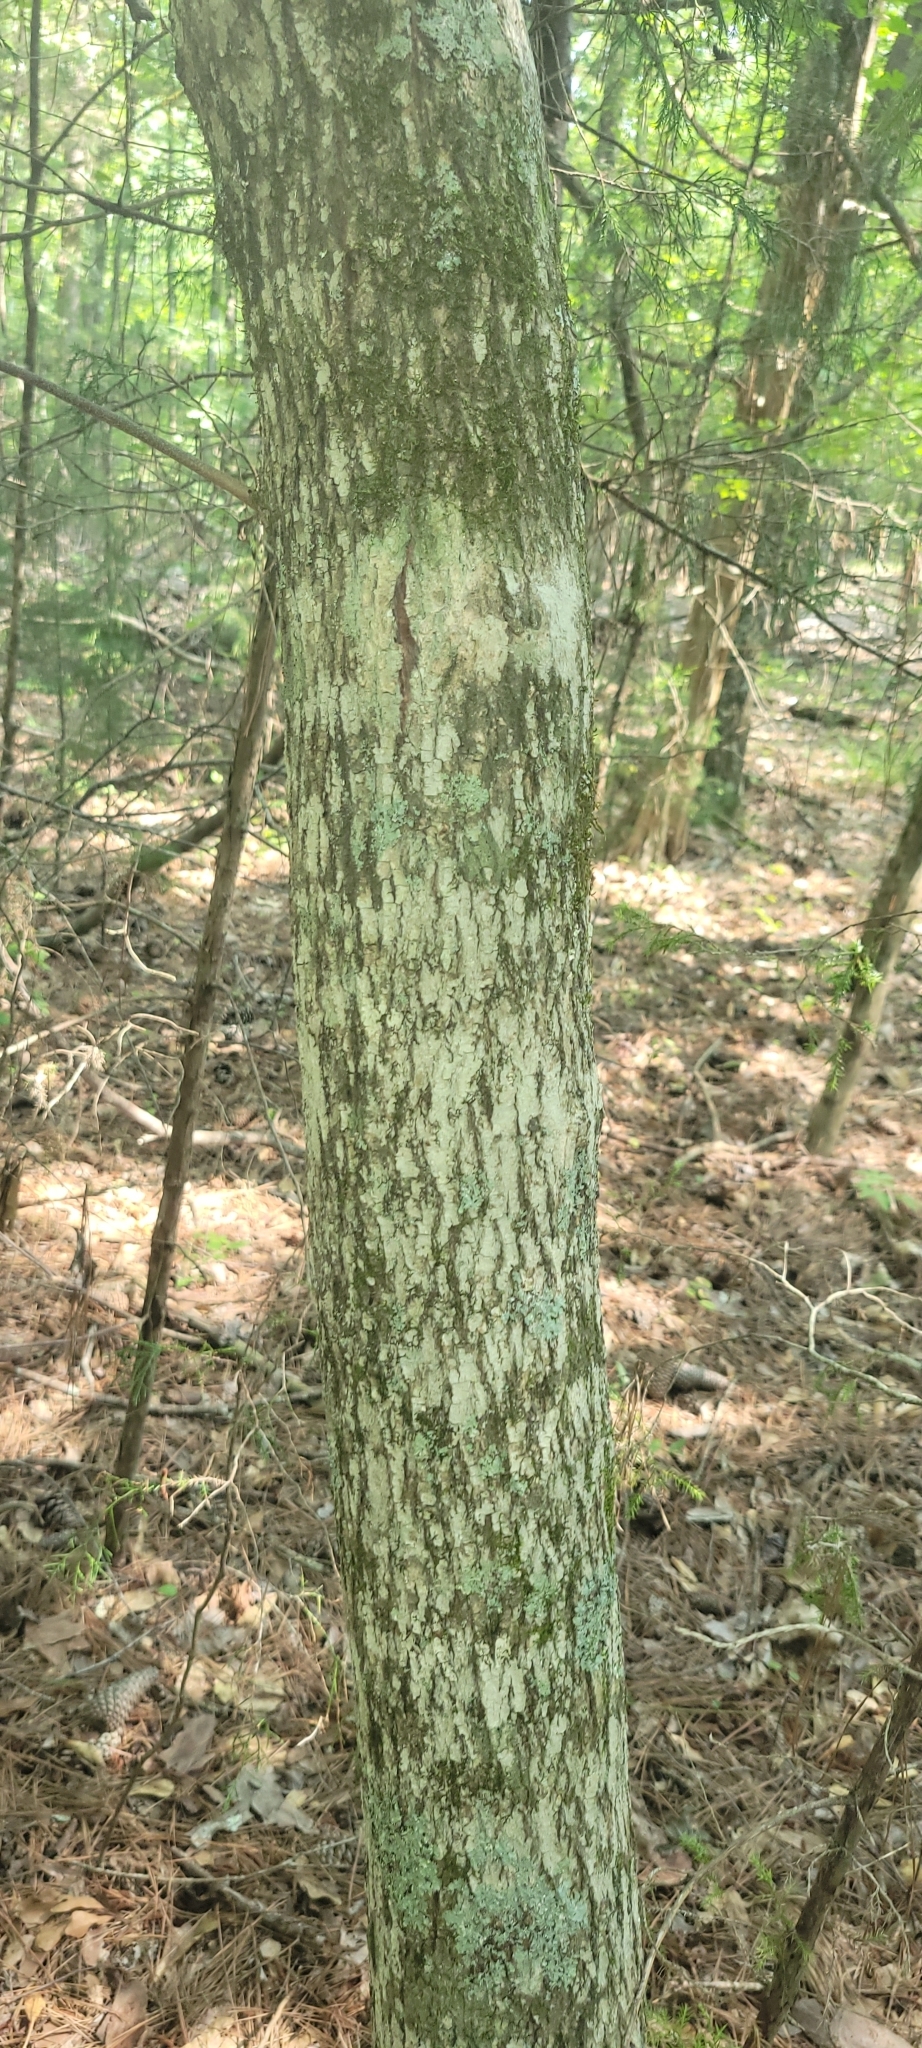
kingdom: Plantae
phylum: Tracheophyta
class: Magnoliopsida
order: Fabales
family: Fabaceae
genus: Cercis
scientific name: Cercis canadensis
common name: Eastern redbud
